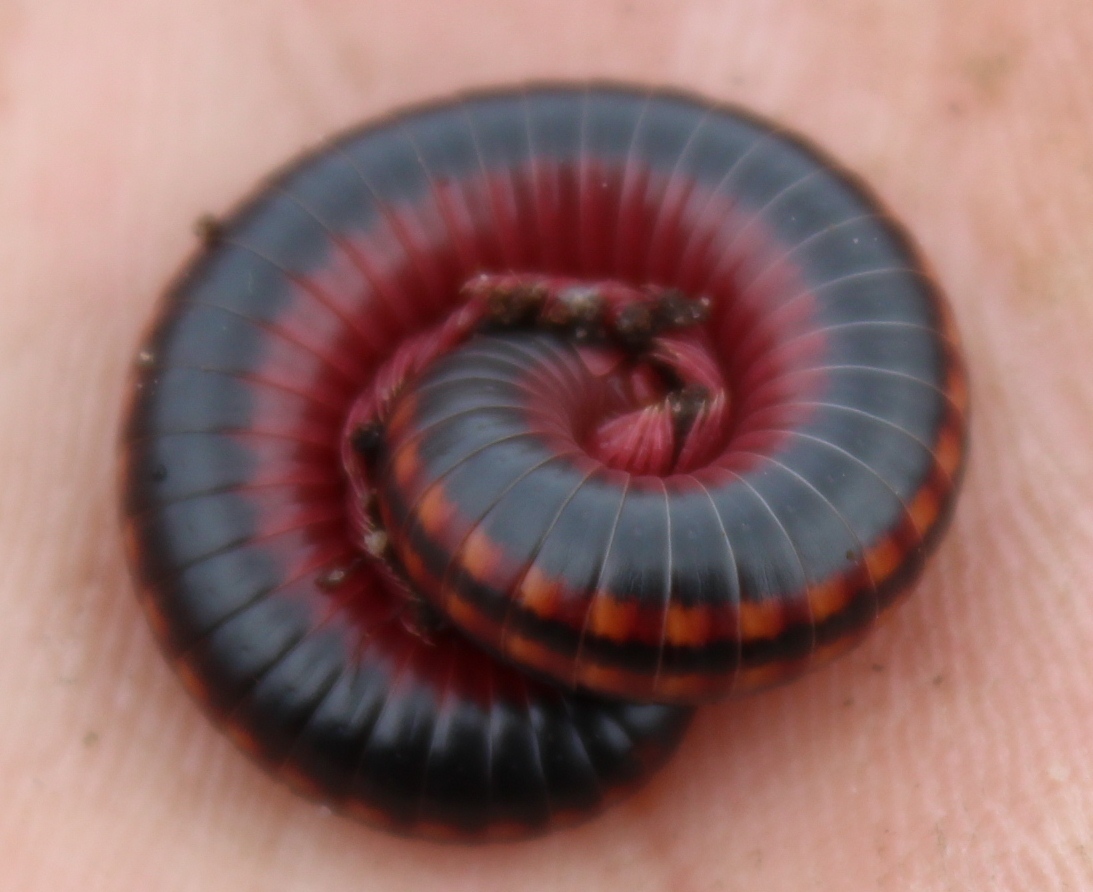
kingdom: Animalia
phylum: Arthropoda
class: Diplopoda
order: Spirobolida
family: Pachybolidae
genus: Centrobolus
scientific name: Centrobolus digrammus
